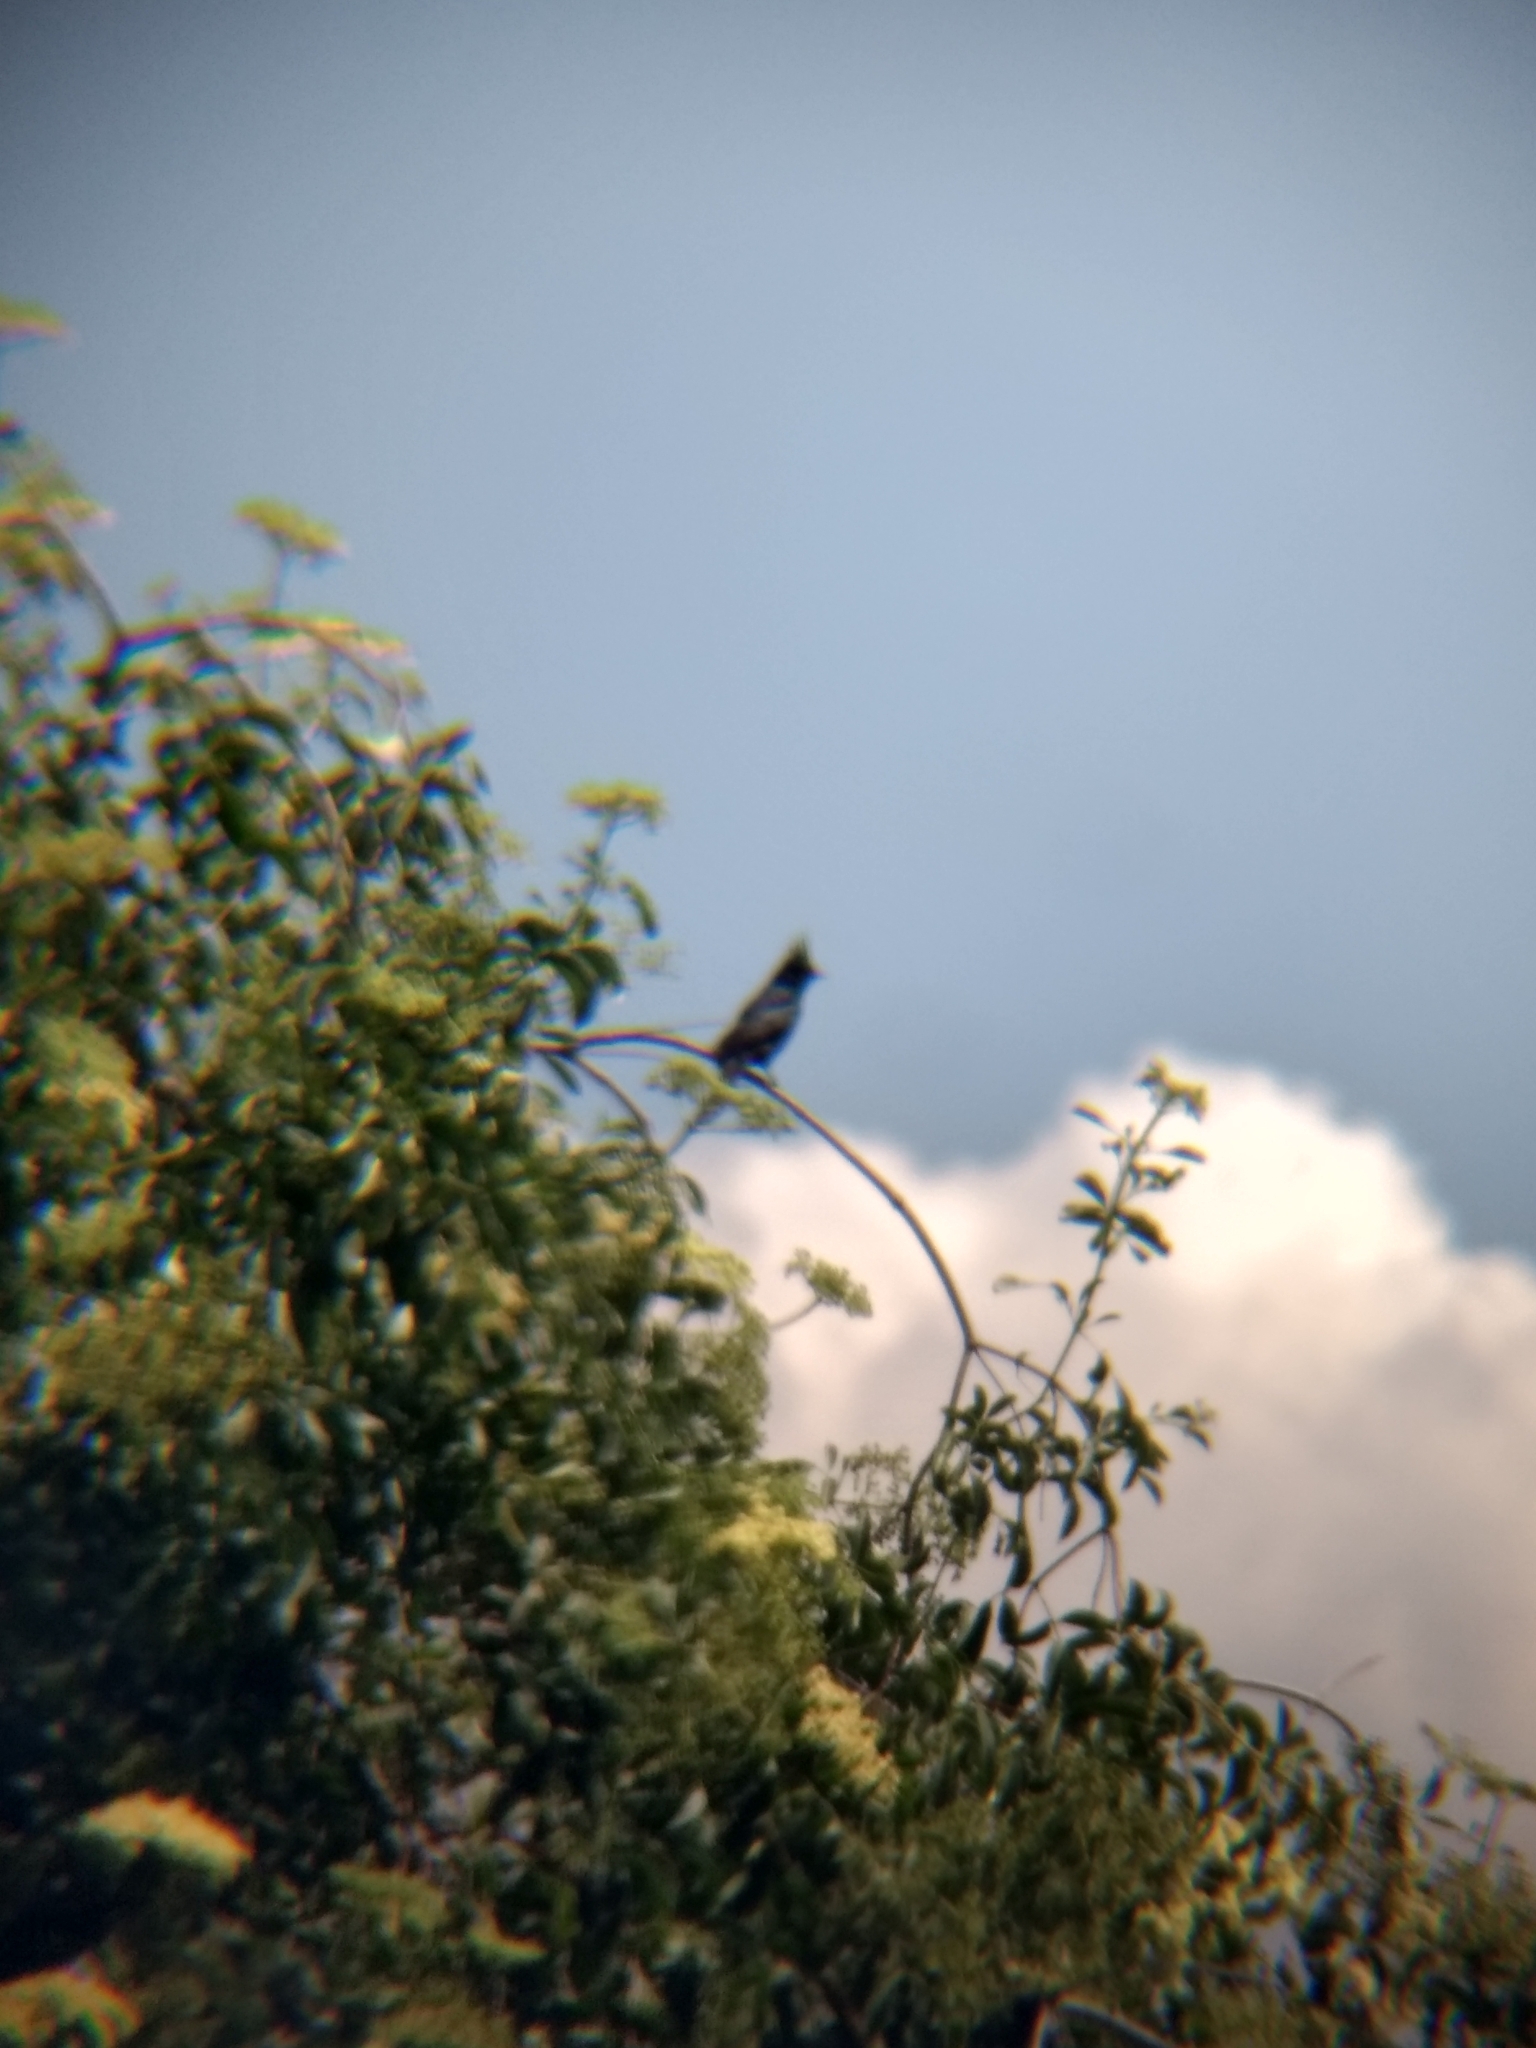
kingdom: Animalia
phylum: Chordata
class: Aves
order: Passeriformes
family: Ptilogonatidae
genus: Phainopepla
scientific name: Phainopepla nitens
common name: Phainopepla
